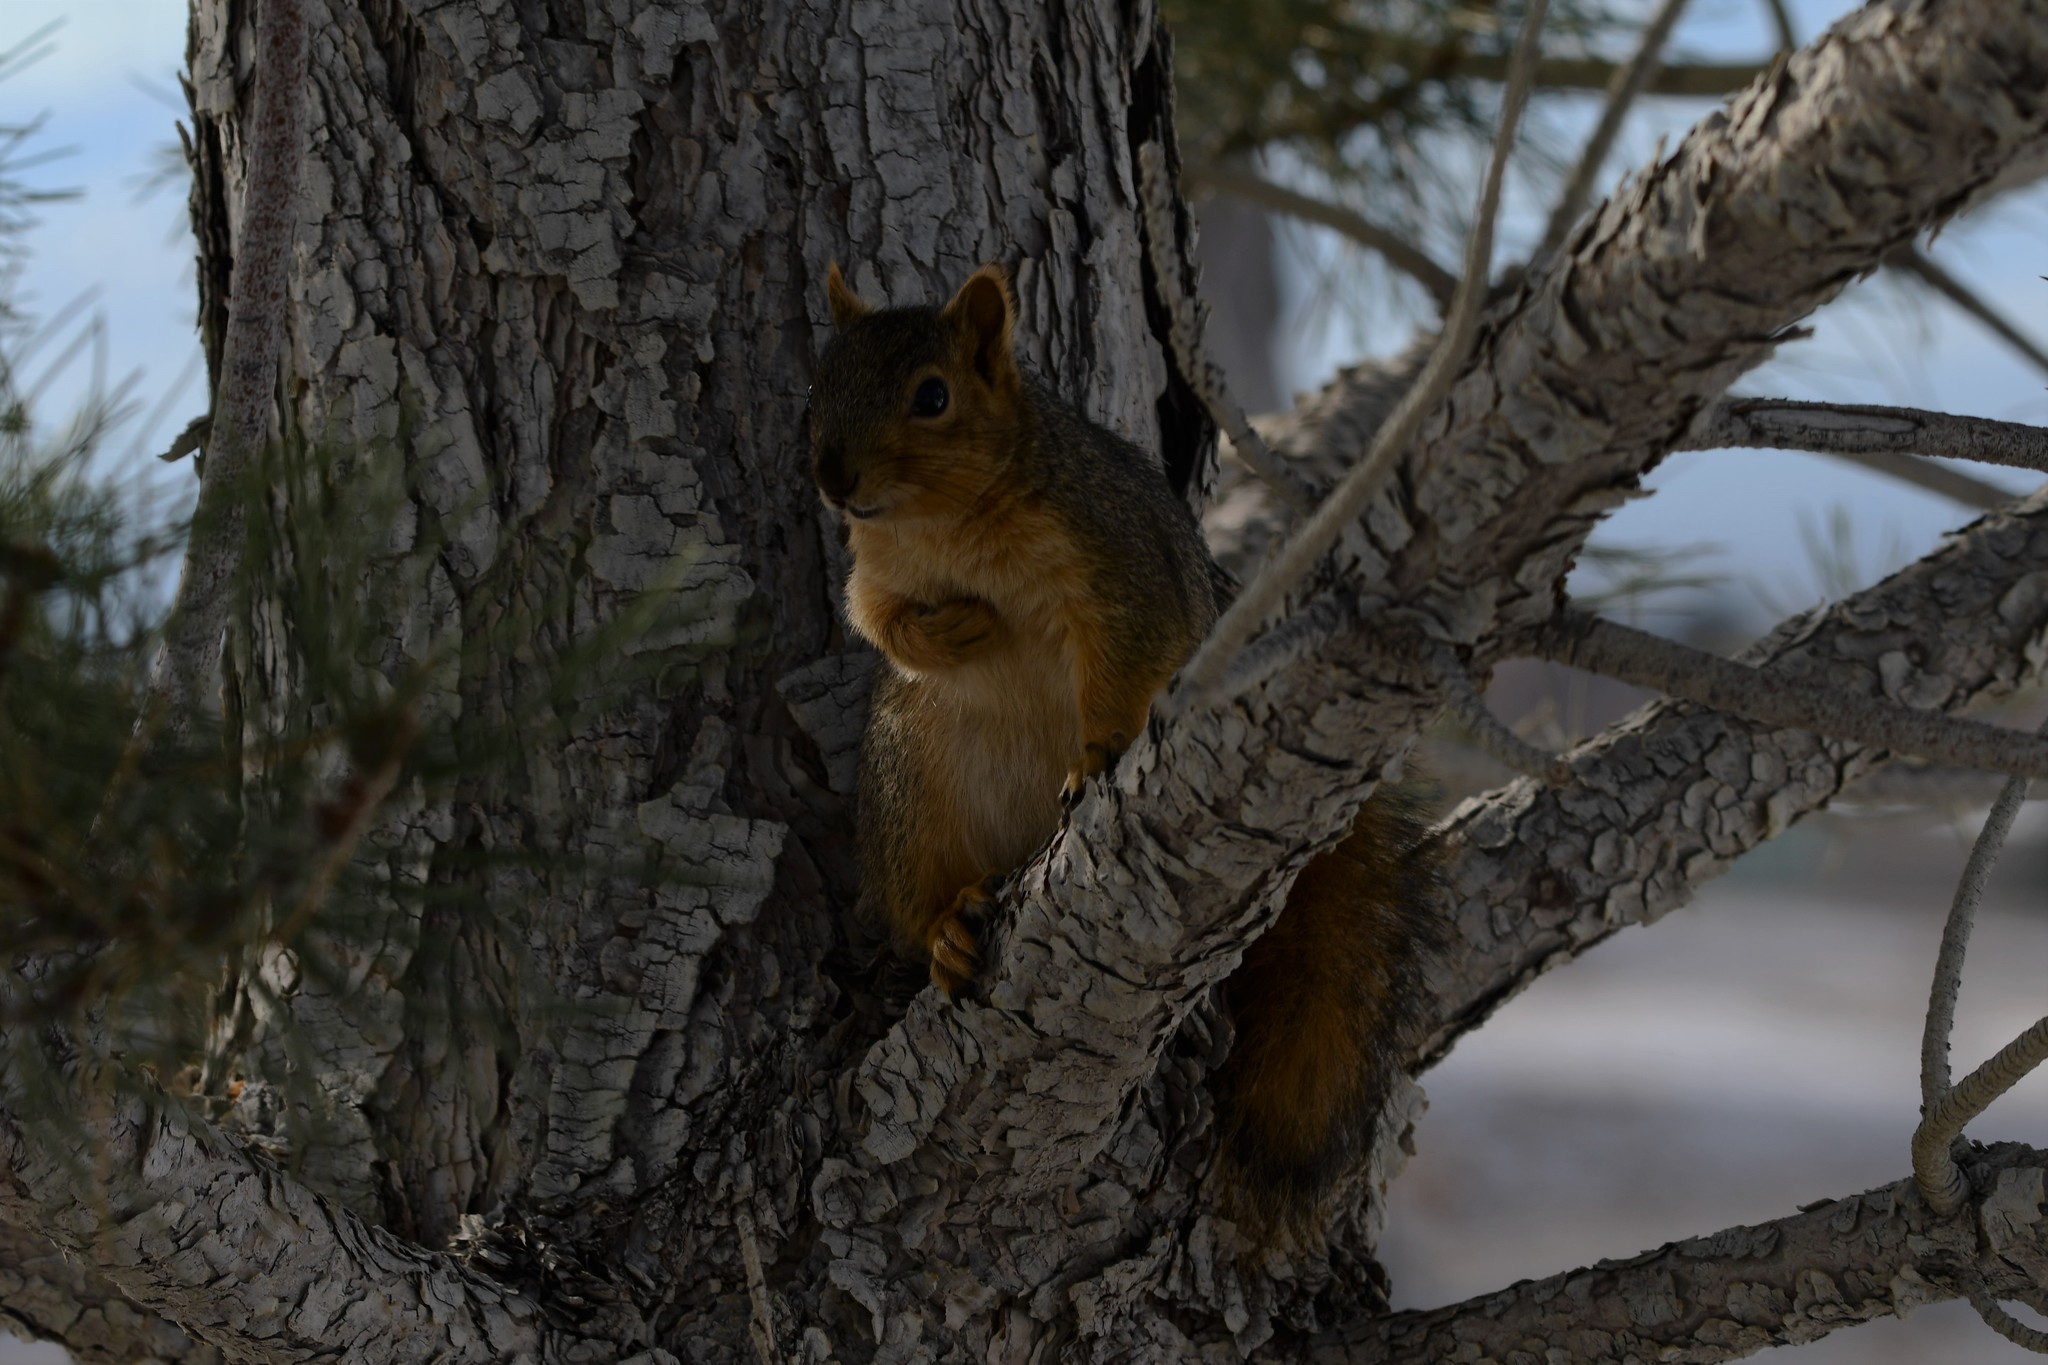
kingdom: Animalia
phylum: Chordata
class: Mammalia
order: Rodentia
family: Sciuridae
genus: Sciurus
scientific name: Sciurus niger
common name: Fox squirrel
